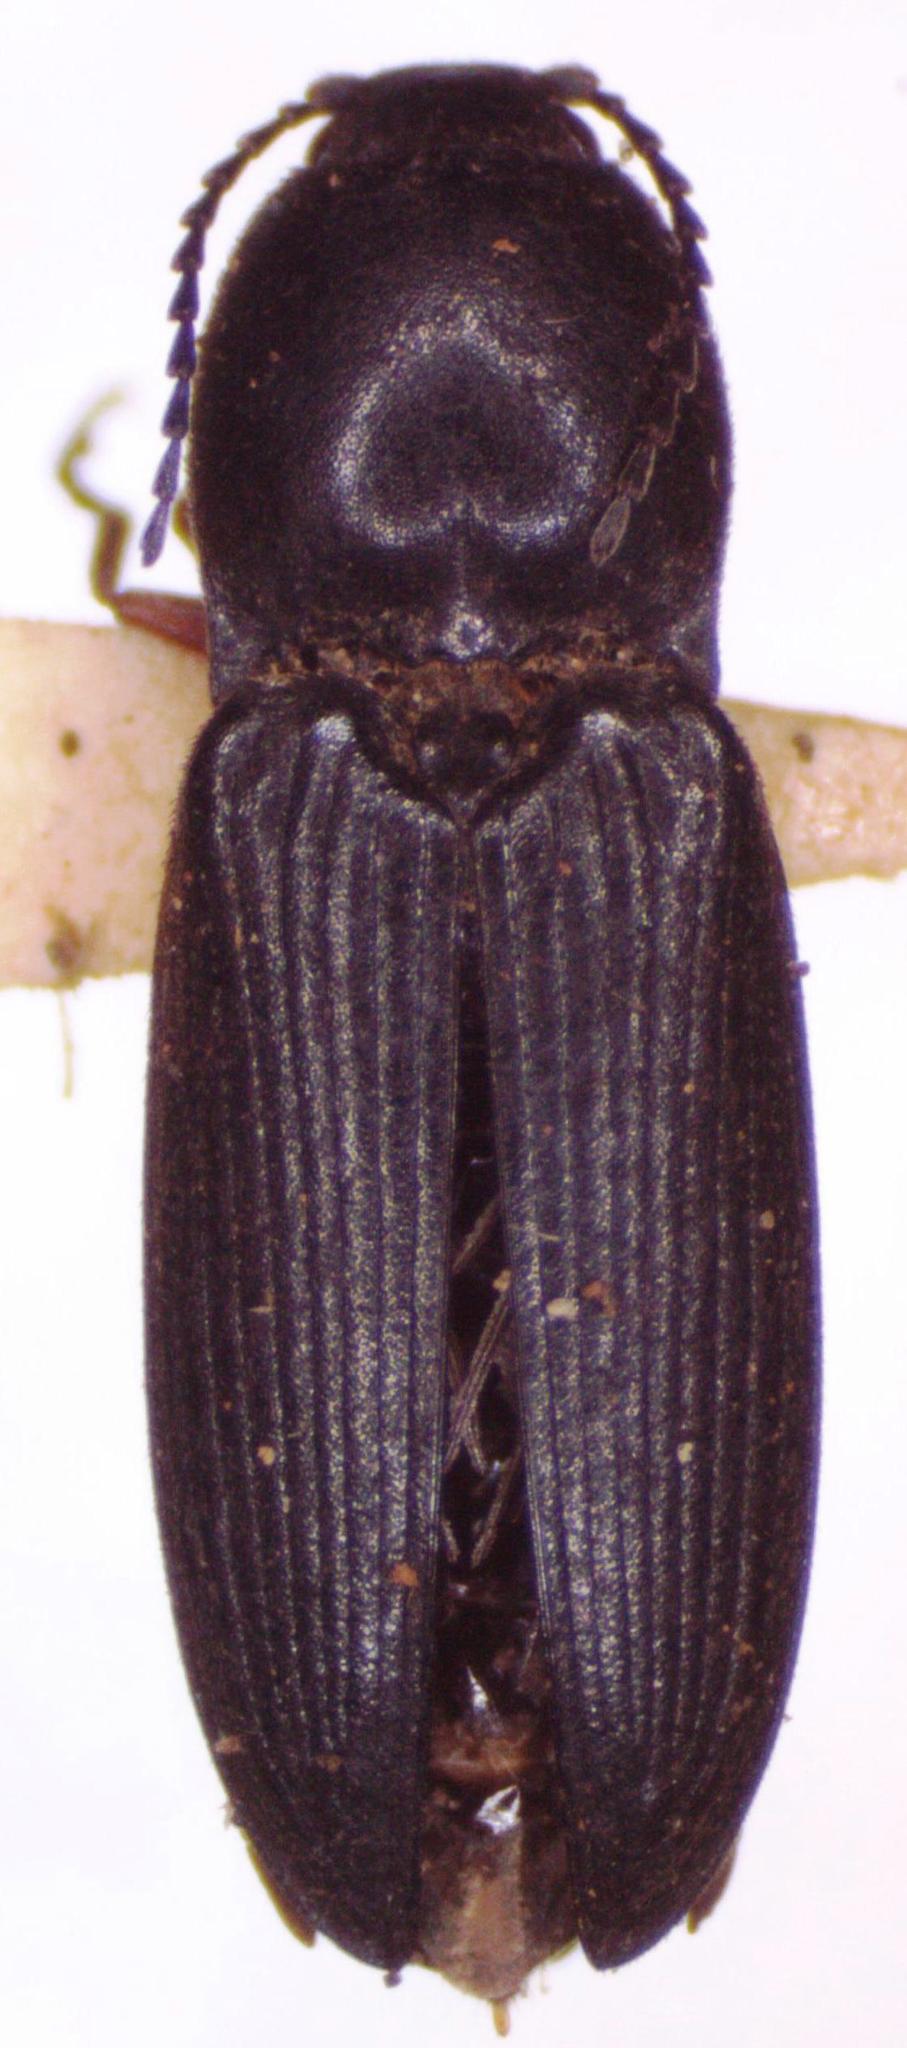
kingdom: Animalia
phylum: Arthropoda
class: Insecta
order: Coleoptera
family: Elateridae
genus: Cardiophorus
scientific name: Cardiophorus vestigialis
